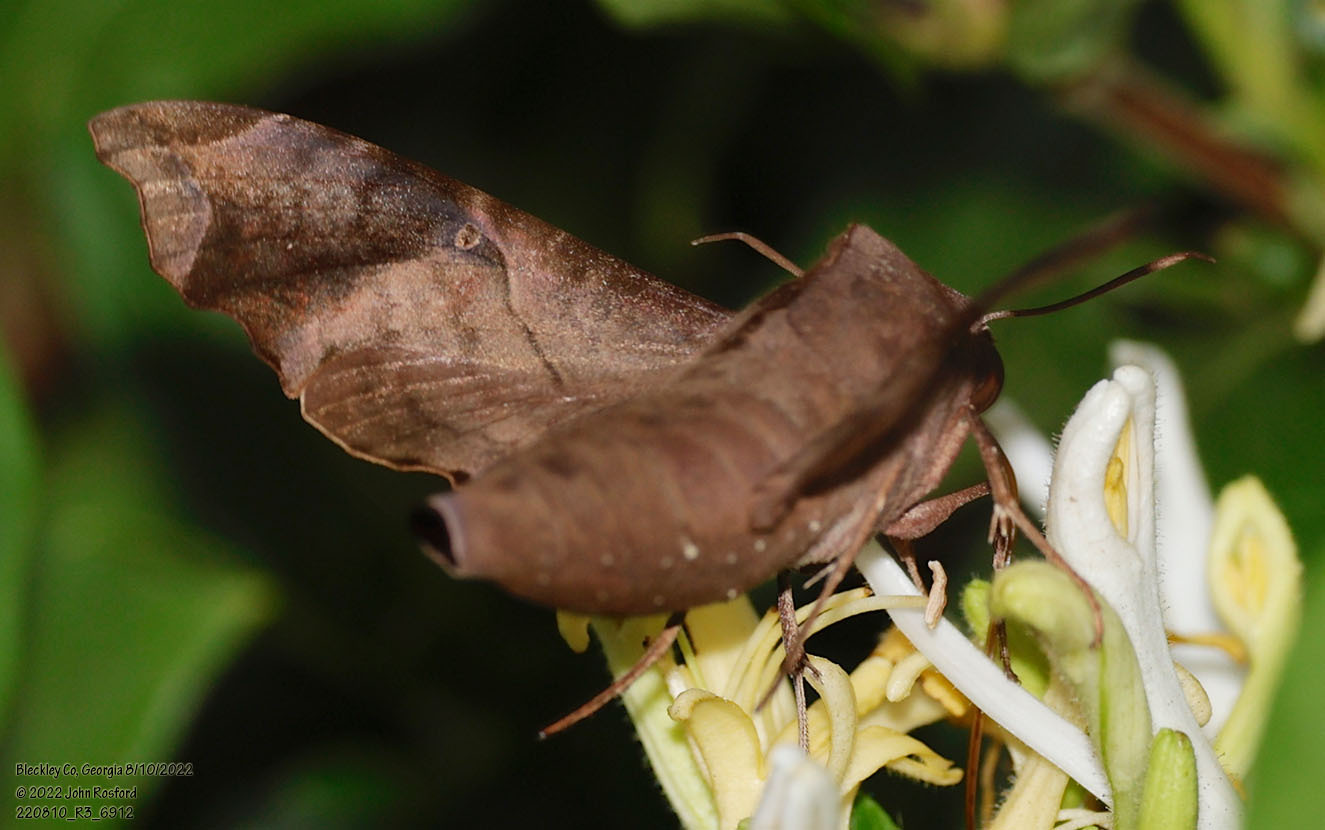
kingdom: Animalia
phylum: Arthropoda
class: Insecta
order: Lepidoptera
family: Sphingidae
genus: Enyo
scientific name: Enyo lugubris
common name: Mournful sphinx
